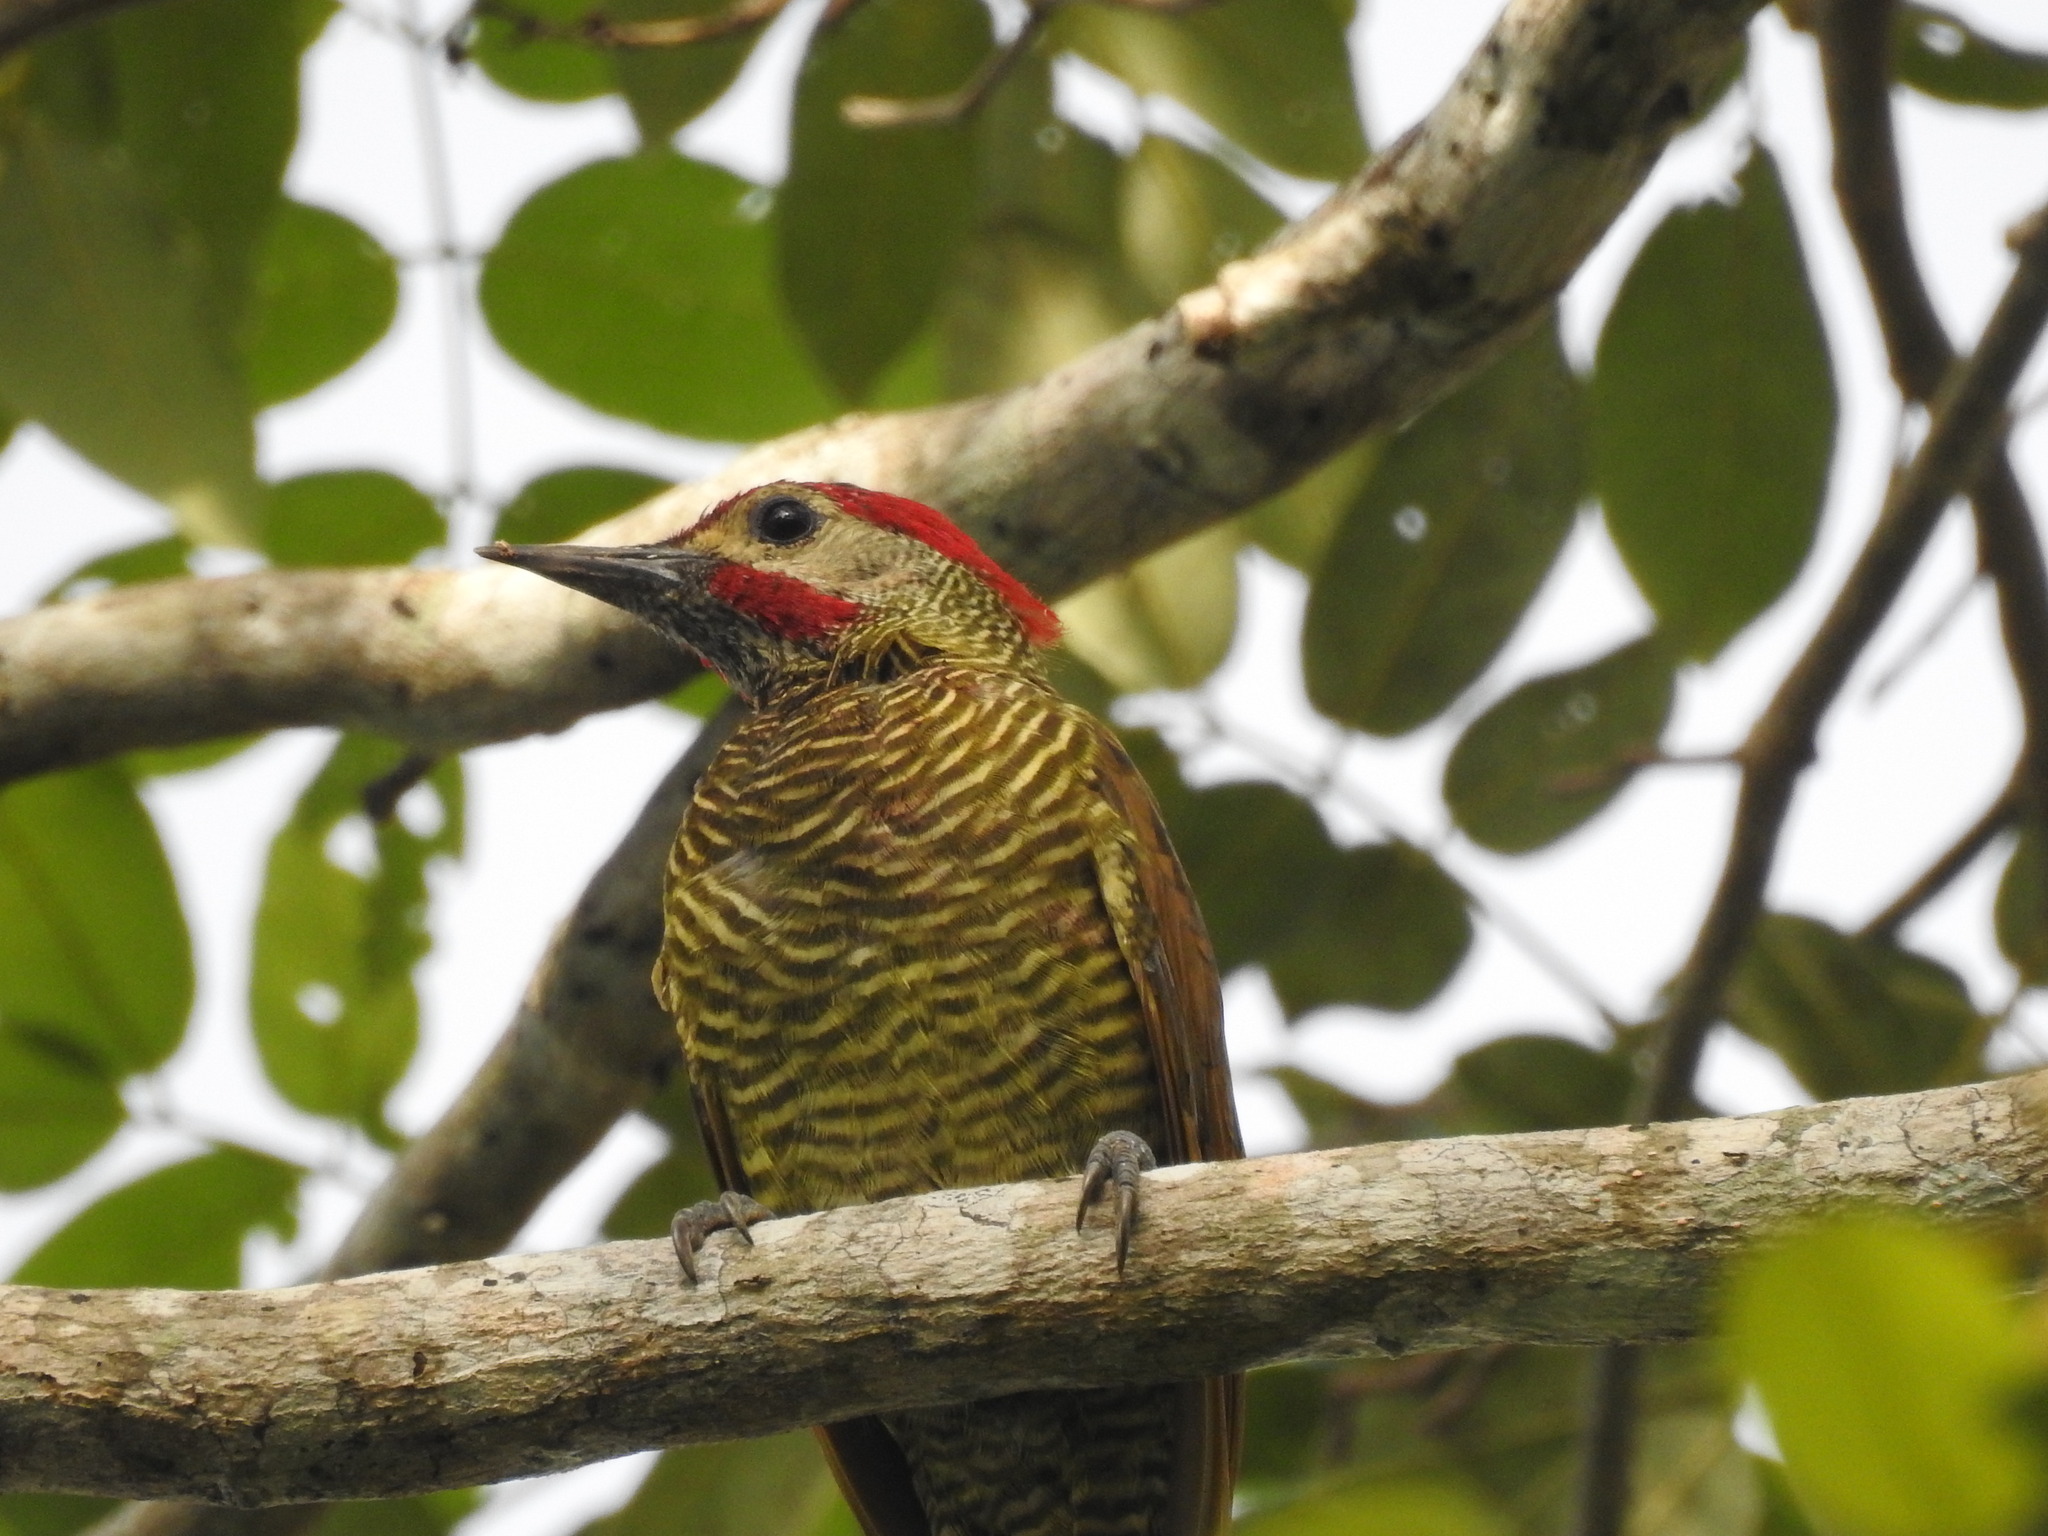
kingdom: Animalia
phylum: Chordata
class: Aves
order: Piciformes
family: Picidae
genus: Colaptes
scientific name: Colaptes rubiginosus
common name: Golden-olive woodpecker
